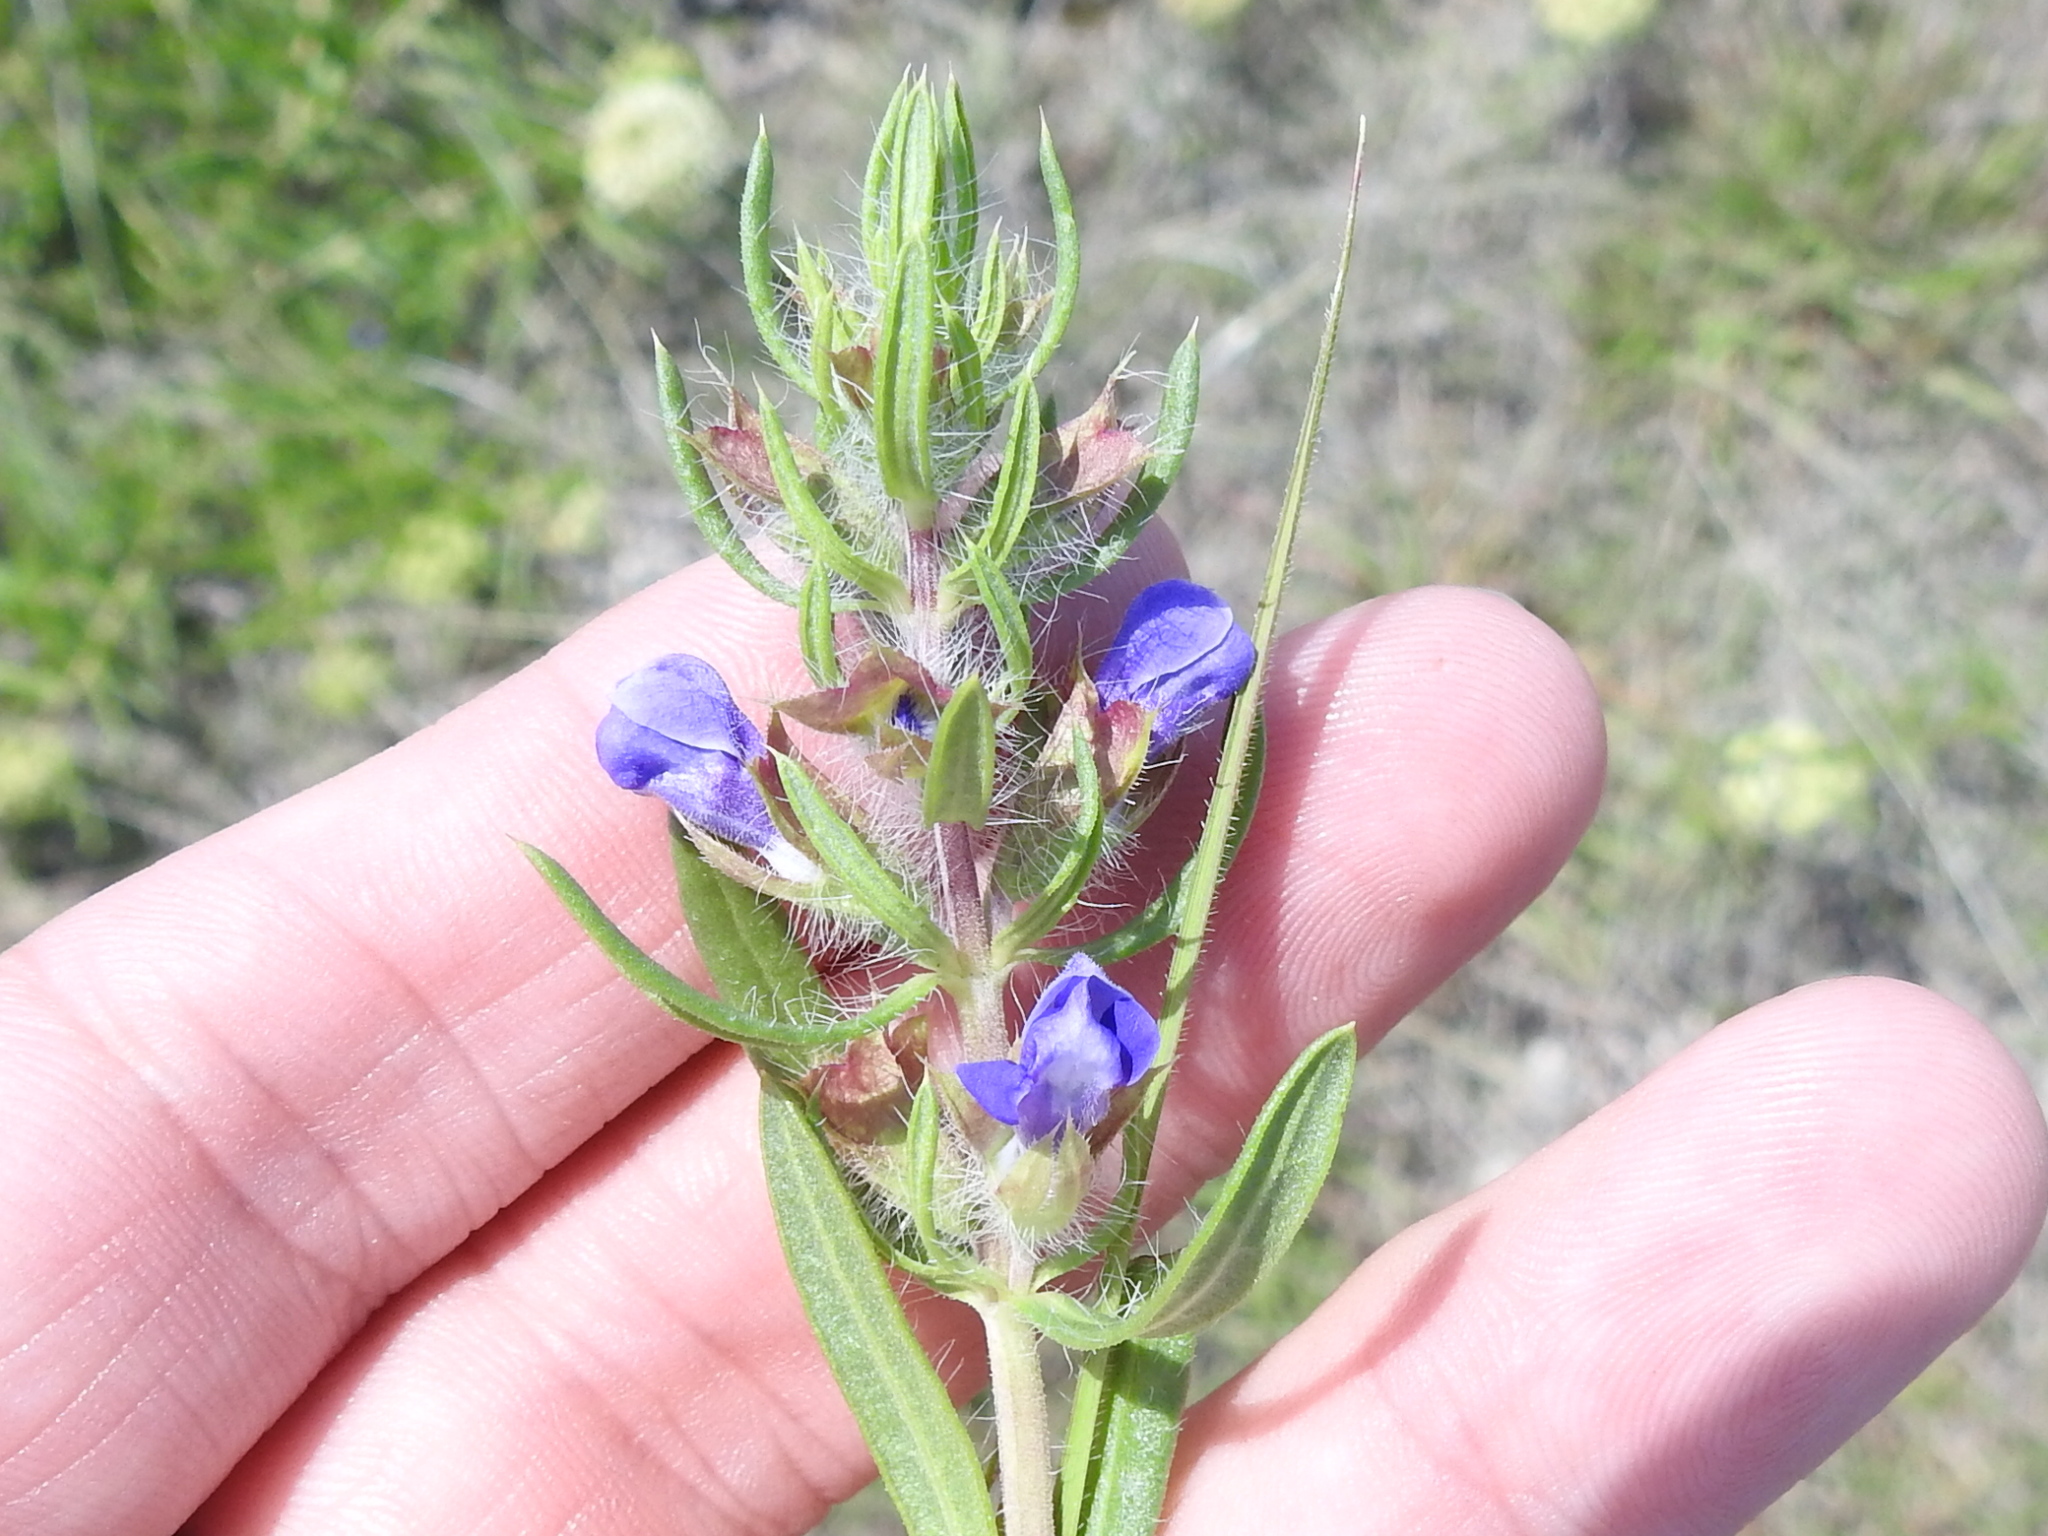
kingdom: Plantae
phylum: Tracheophyta
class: Magnoliopsida
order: Lamiales
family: Lamiaceae
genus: Salvia
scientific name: Salvia texana
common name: Texas sage
